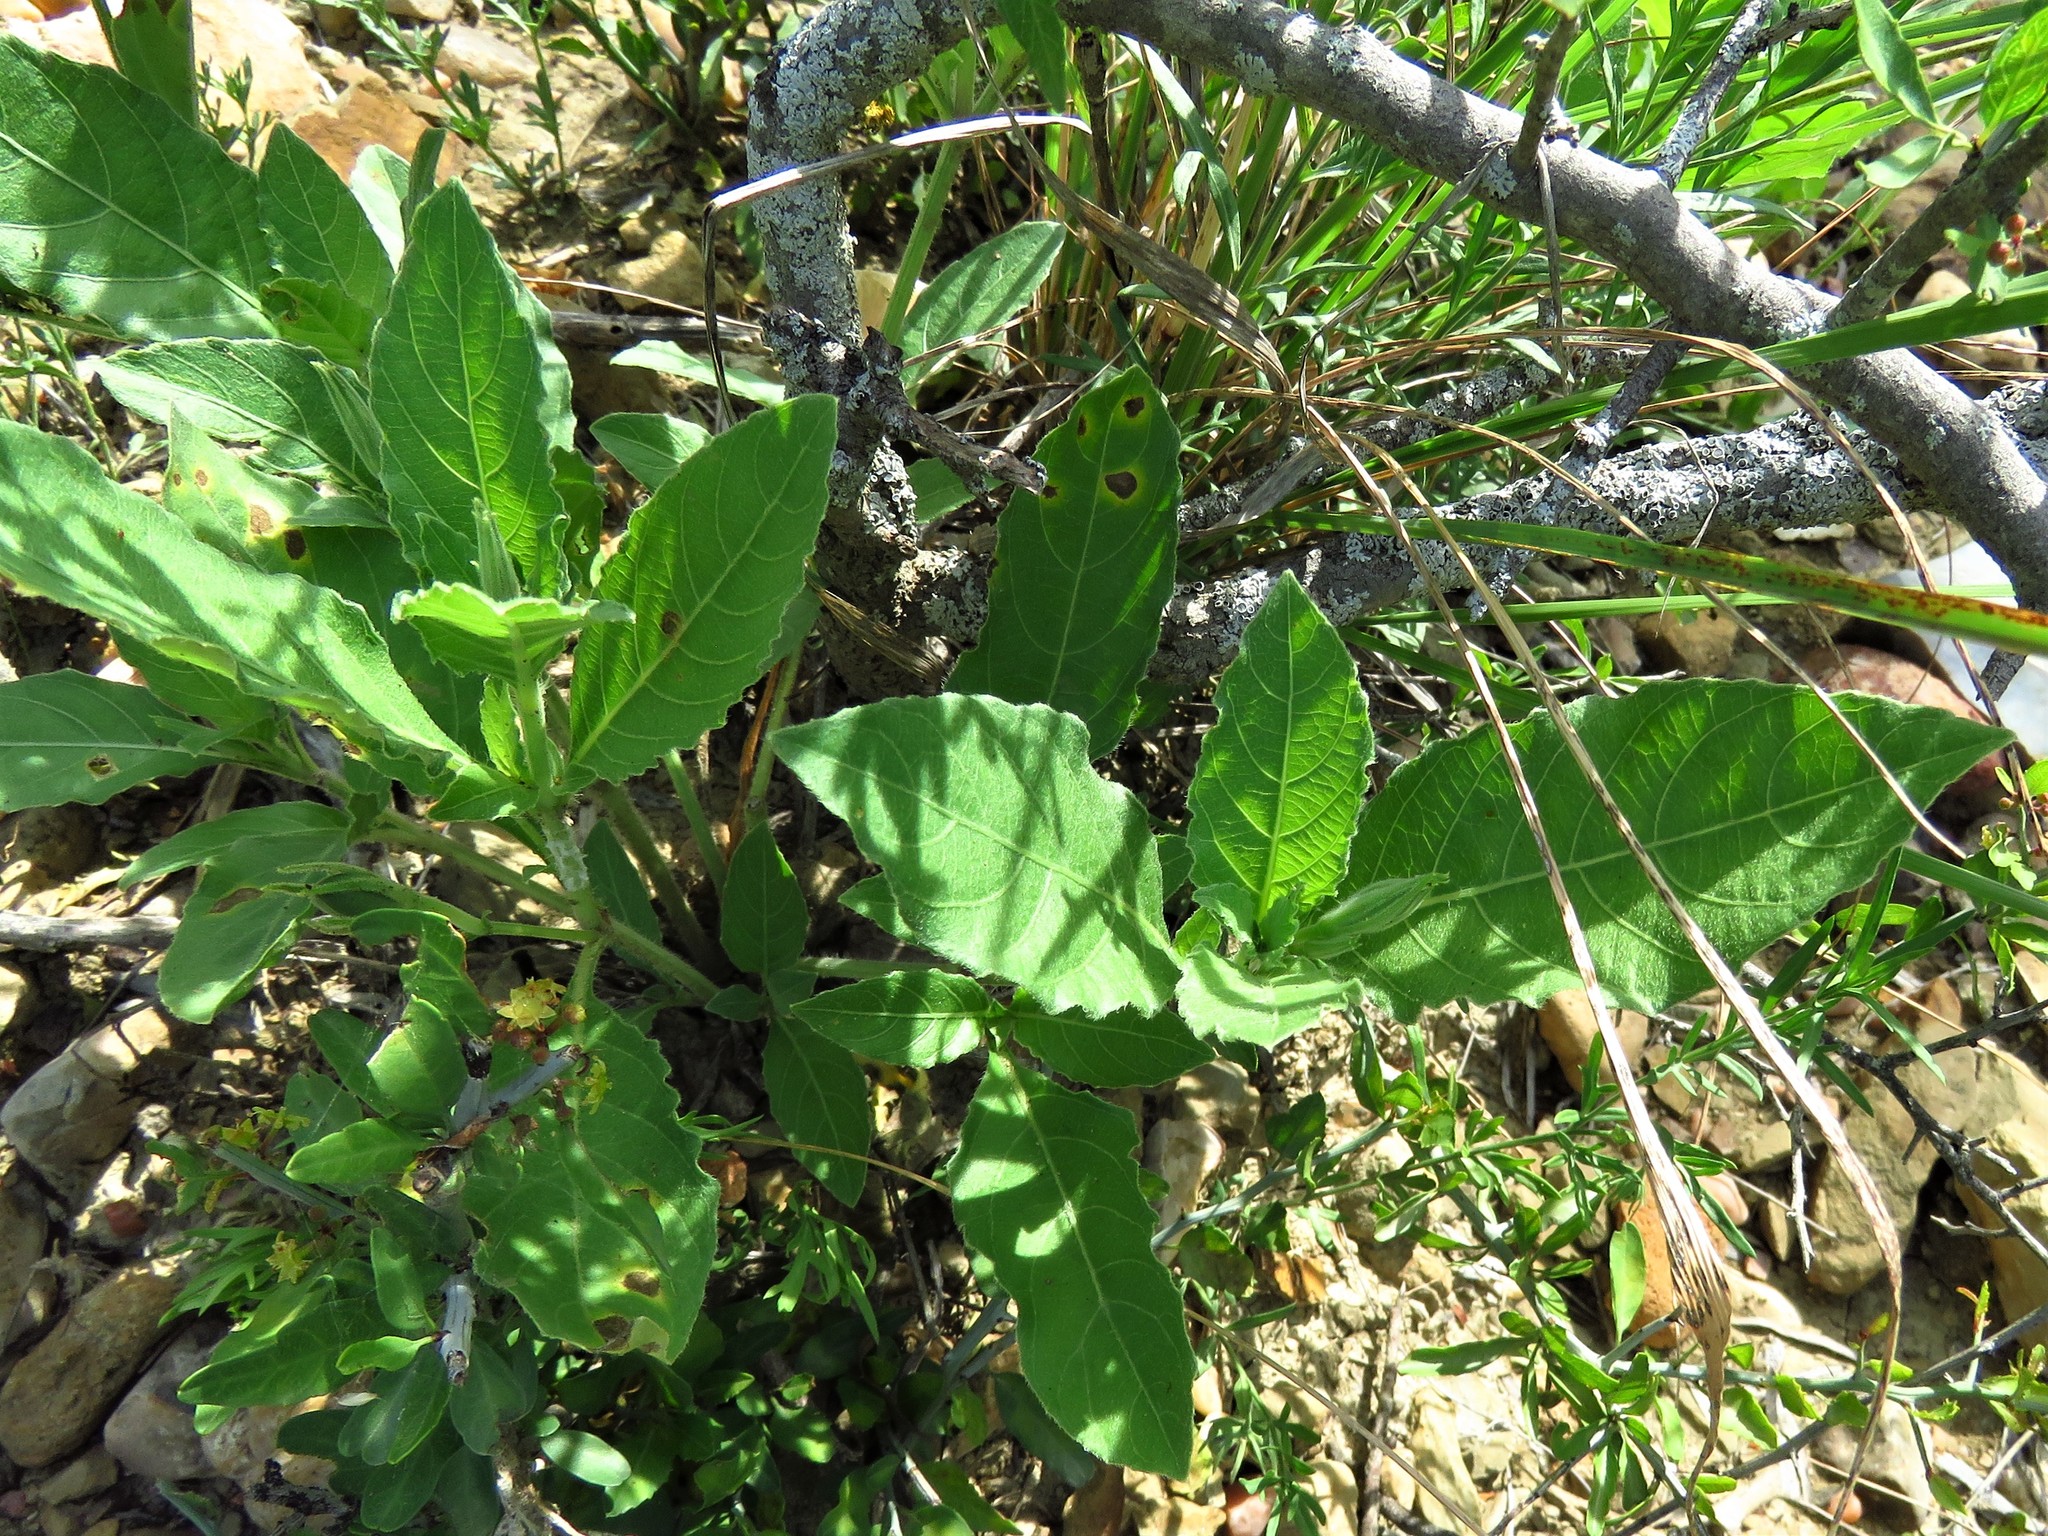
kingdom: Plantae
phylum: Tracheophyta
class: Magnoliopsida
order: Lamiales
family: Acanthaceae
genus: Ruellia
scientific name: Ruellia metziae
